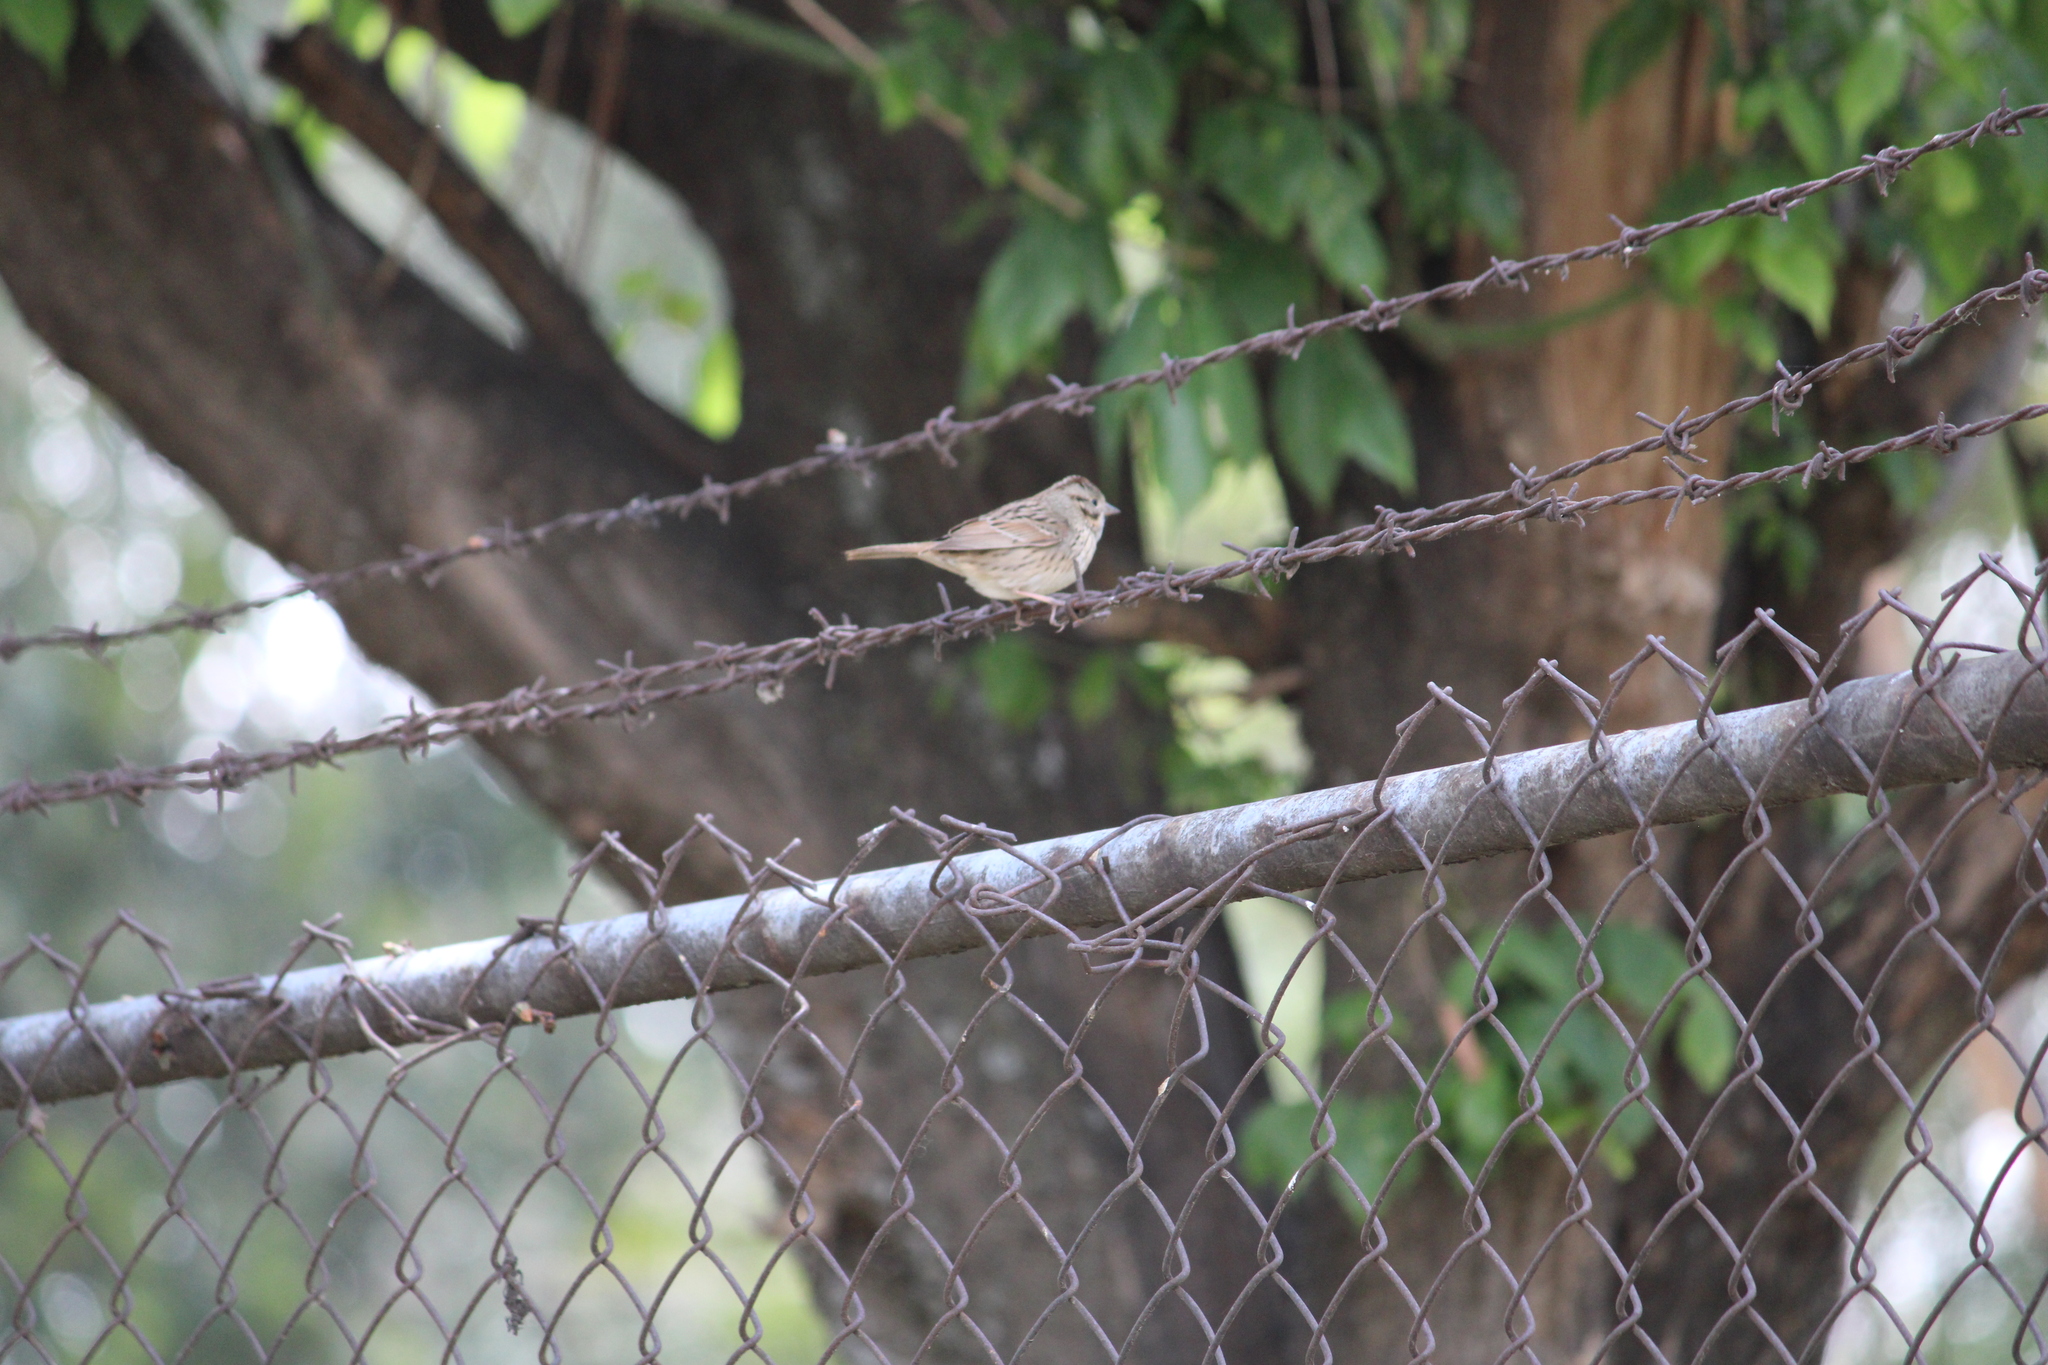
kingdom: Animalia
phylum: Chordata
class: Aves
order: Passeriformes
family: Passerellidae
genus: Melospiza
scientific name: Melospiza lincolnii
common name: Lincoln's sparrow
